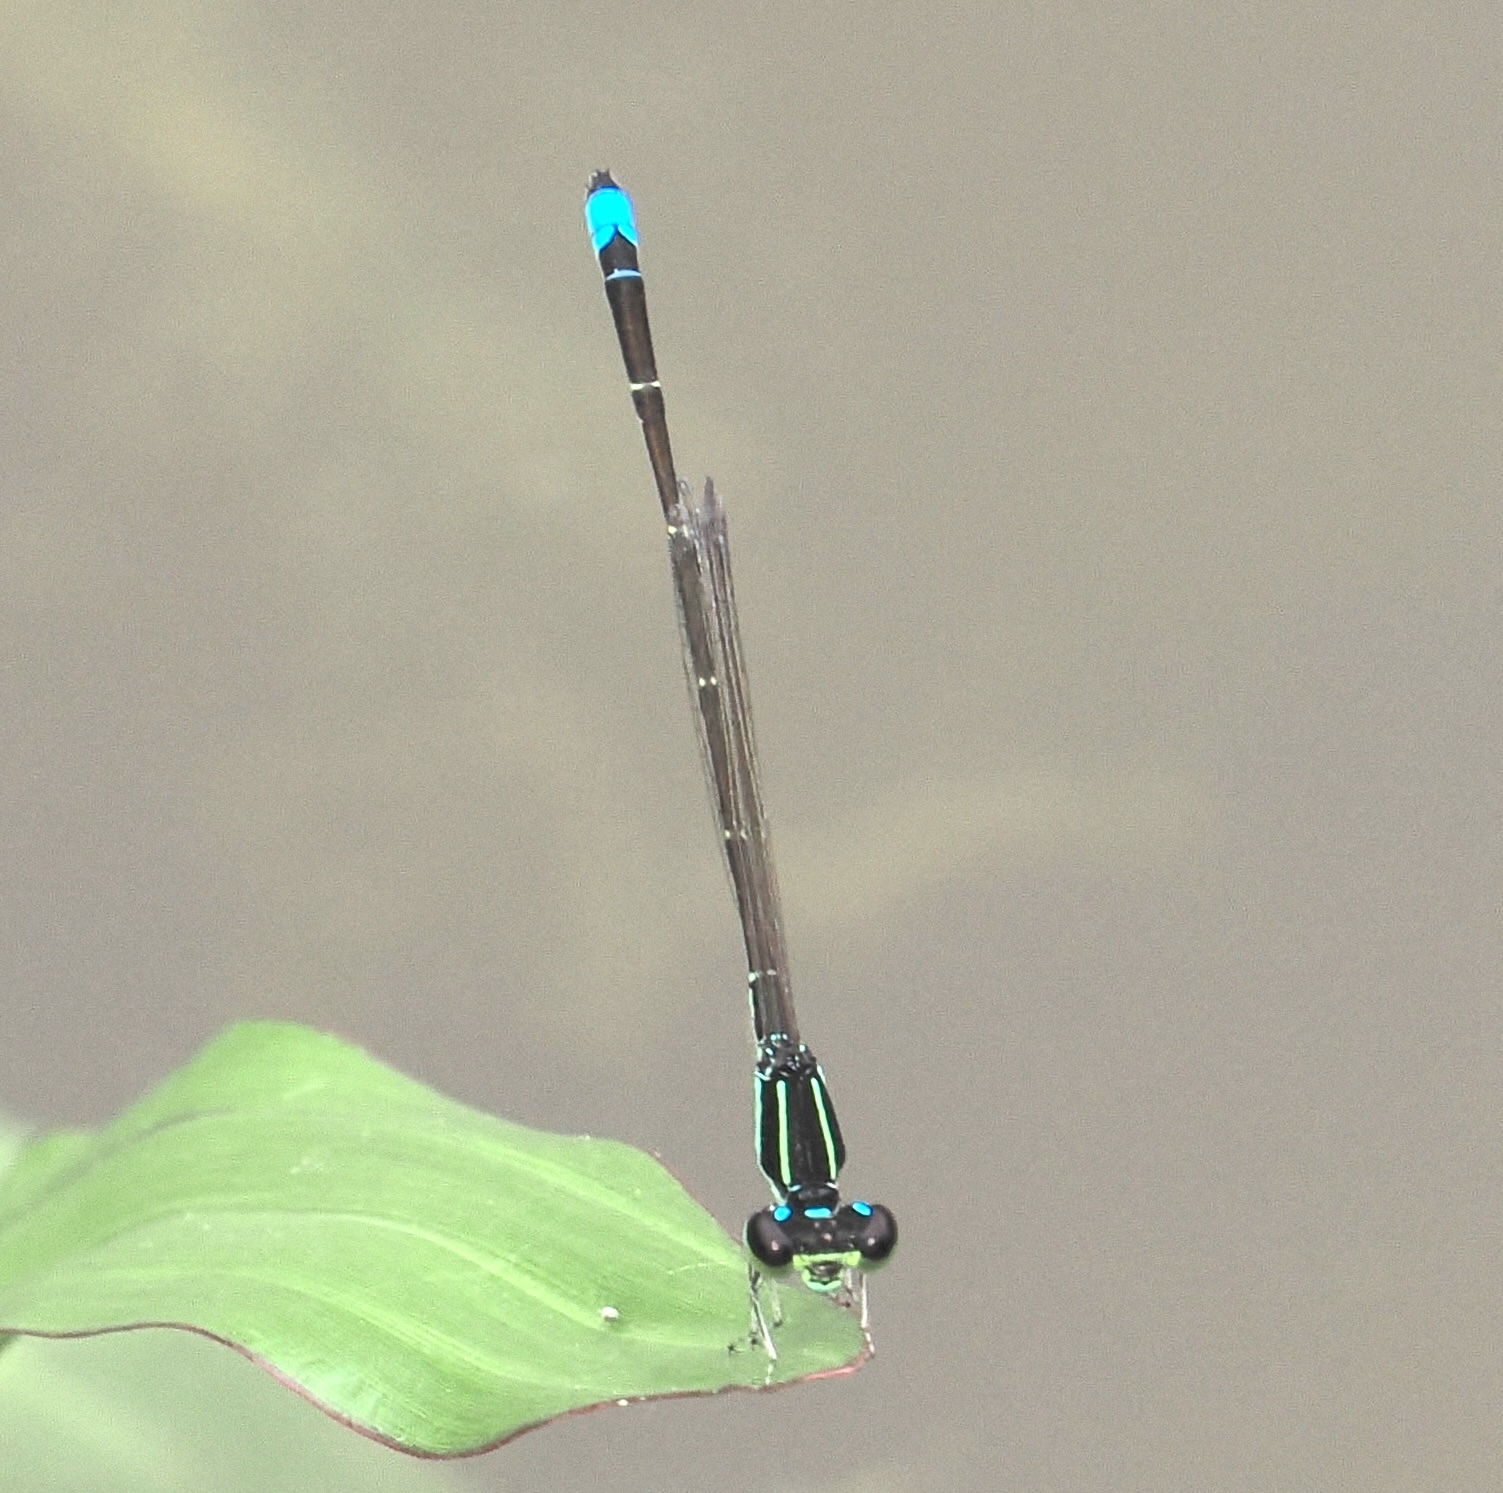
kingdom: Animalia
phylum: Arthropoda
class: Insecta
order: Odonata
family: Coenagrionidae
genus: Ischnura
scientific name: Ischnura capreolus
